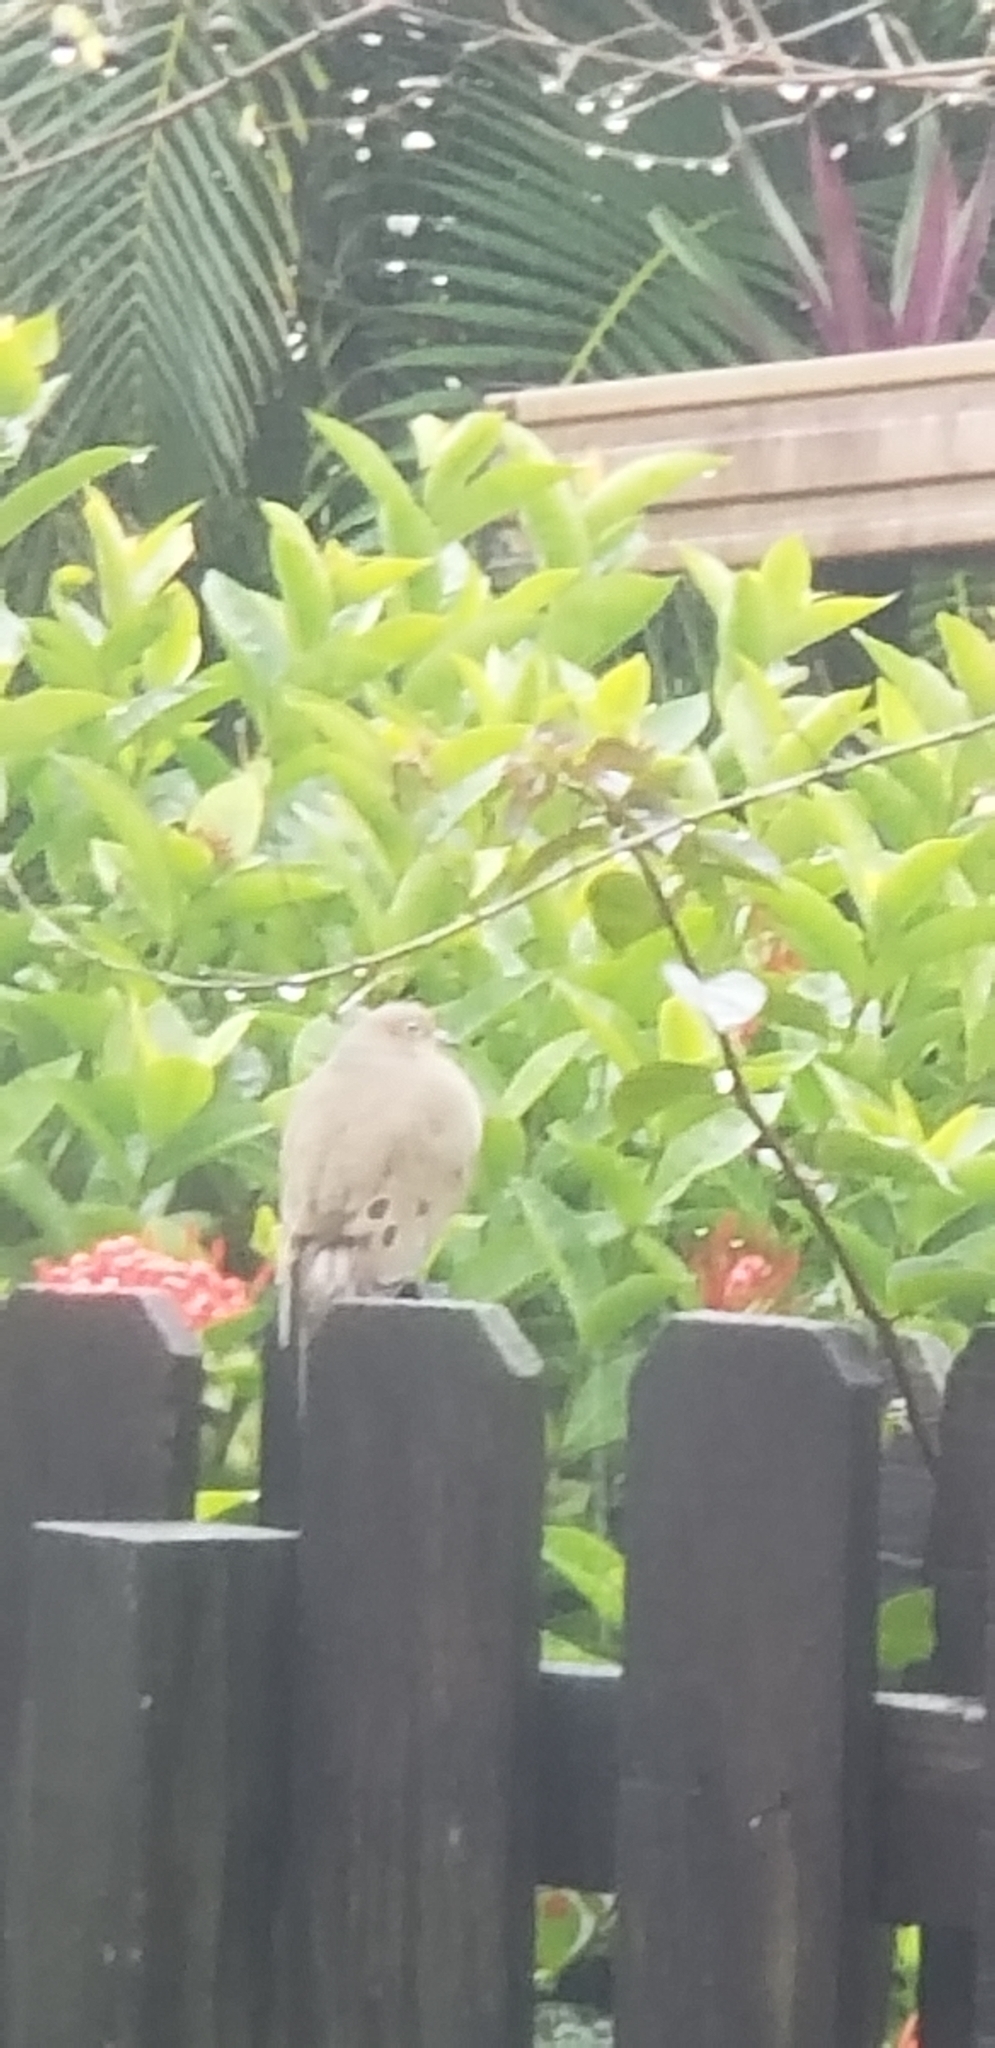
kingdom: Animalia
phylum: Chordata
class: Aves
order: Columbiformes
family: Columbidae
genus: Zenaida
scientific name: Zenaida macroura
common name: Mourning dove
